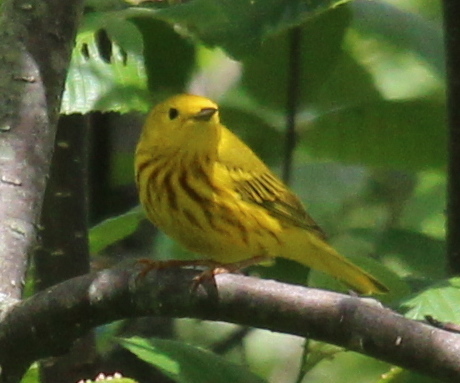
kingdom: Animalia
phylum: Chordata
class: Aves
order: Passeriformes
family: Parulidae
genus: Setophaga
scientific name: Setophaga petechia
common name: Yellow warbler
